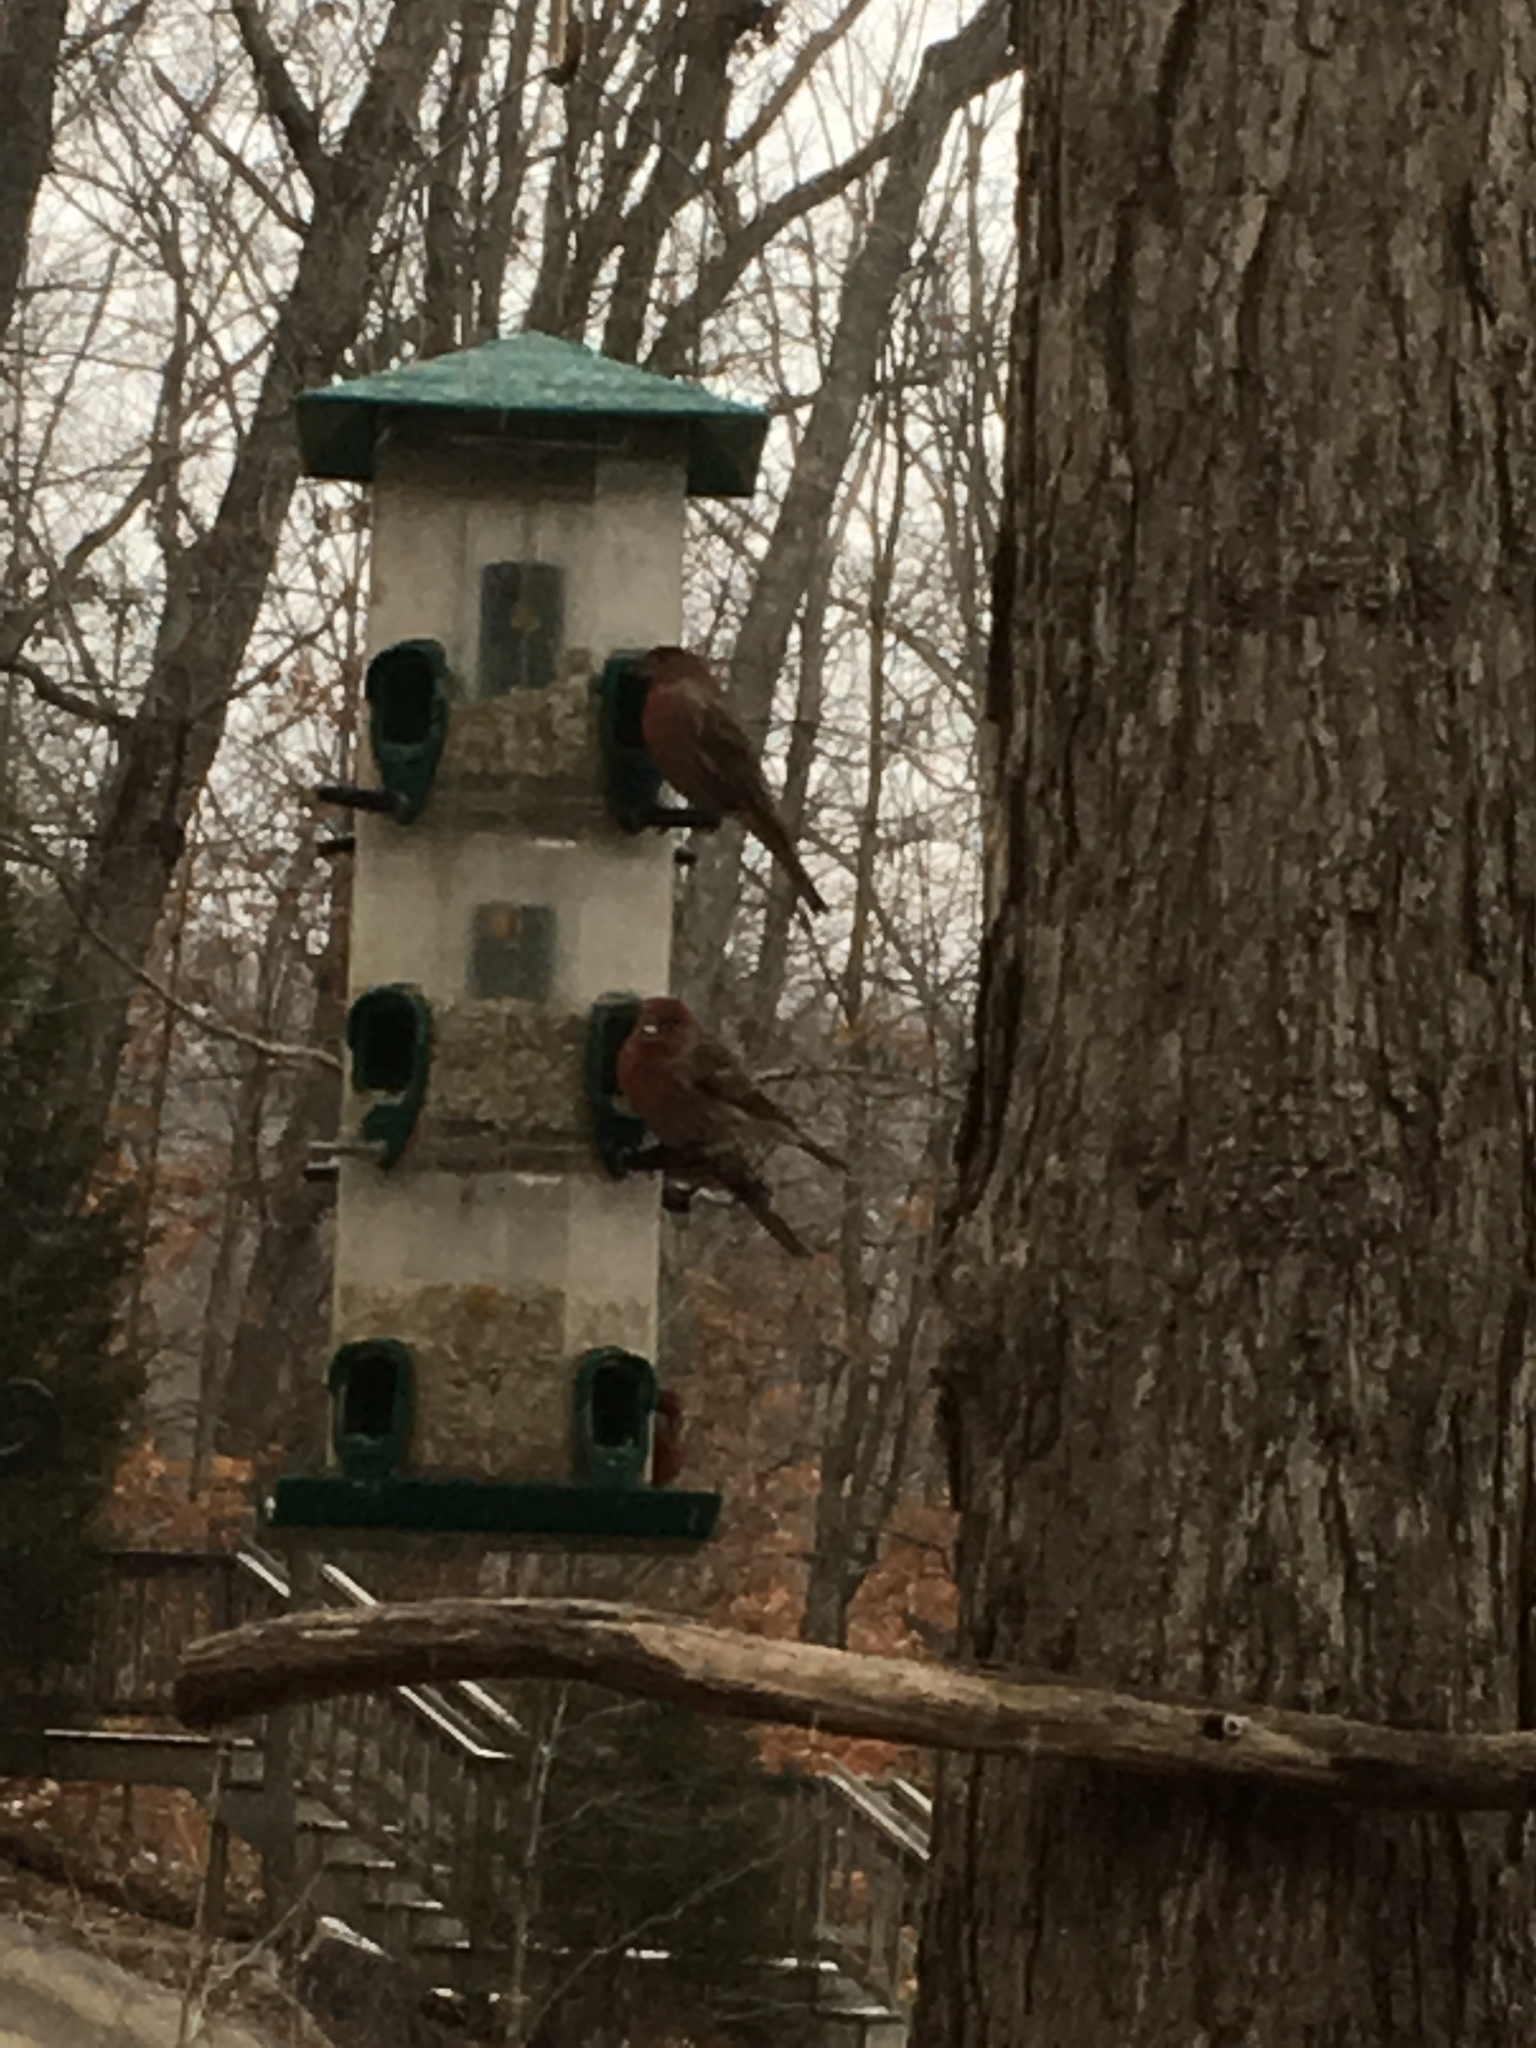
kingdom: Animalia
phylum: Chordata
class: Aves
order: Passeriformes
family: Fringillidae
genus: Haemorhous
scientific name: Haemorhous mexicanus
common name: House finch
